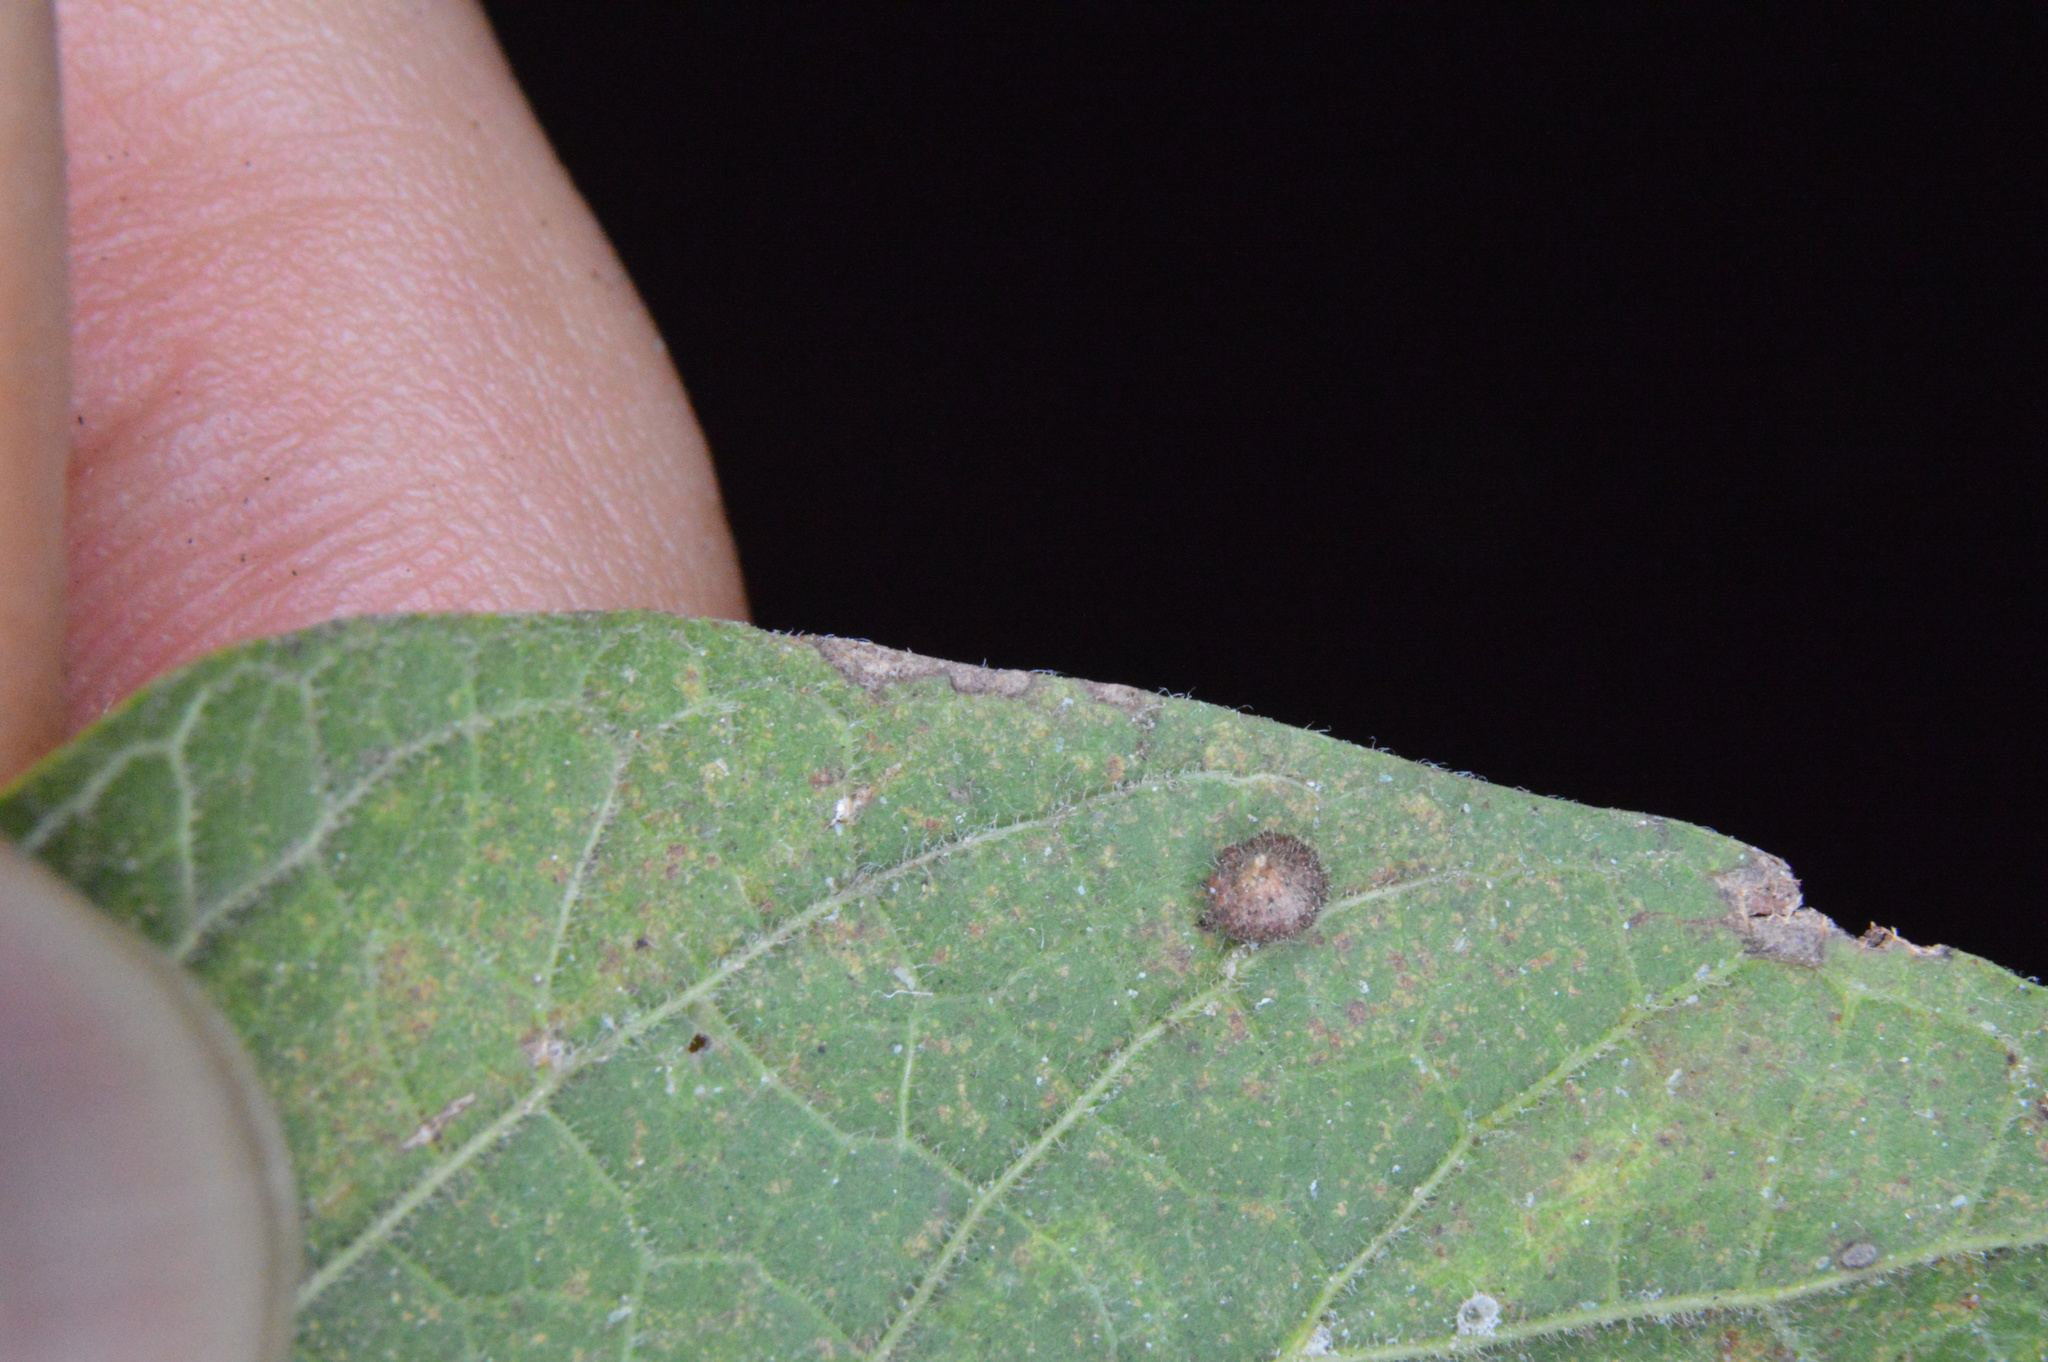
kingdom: Animalia
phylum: Arthropoda
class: Insecta
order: Diptera
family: Cecidomyiidae
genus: Celticecis
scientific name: Celticecis capsularis
